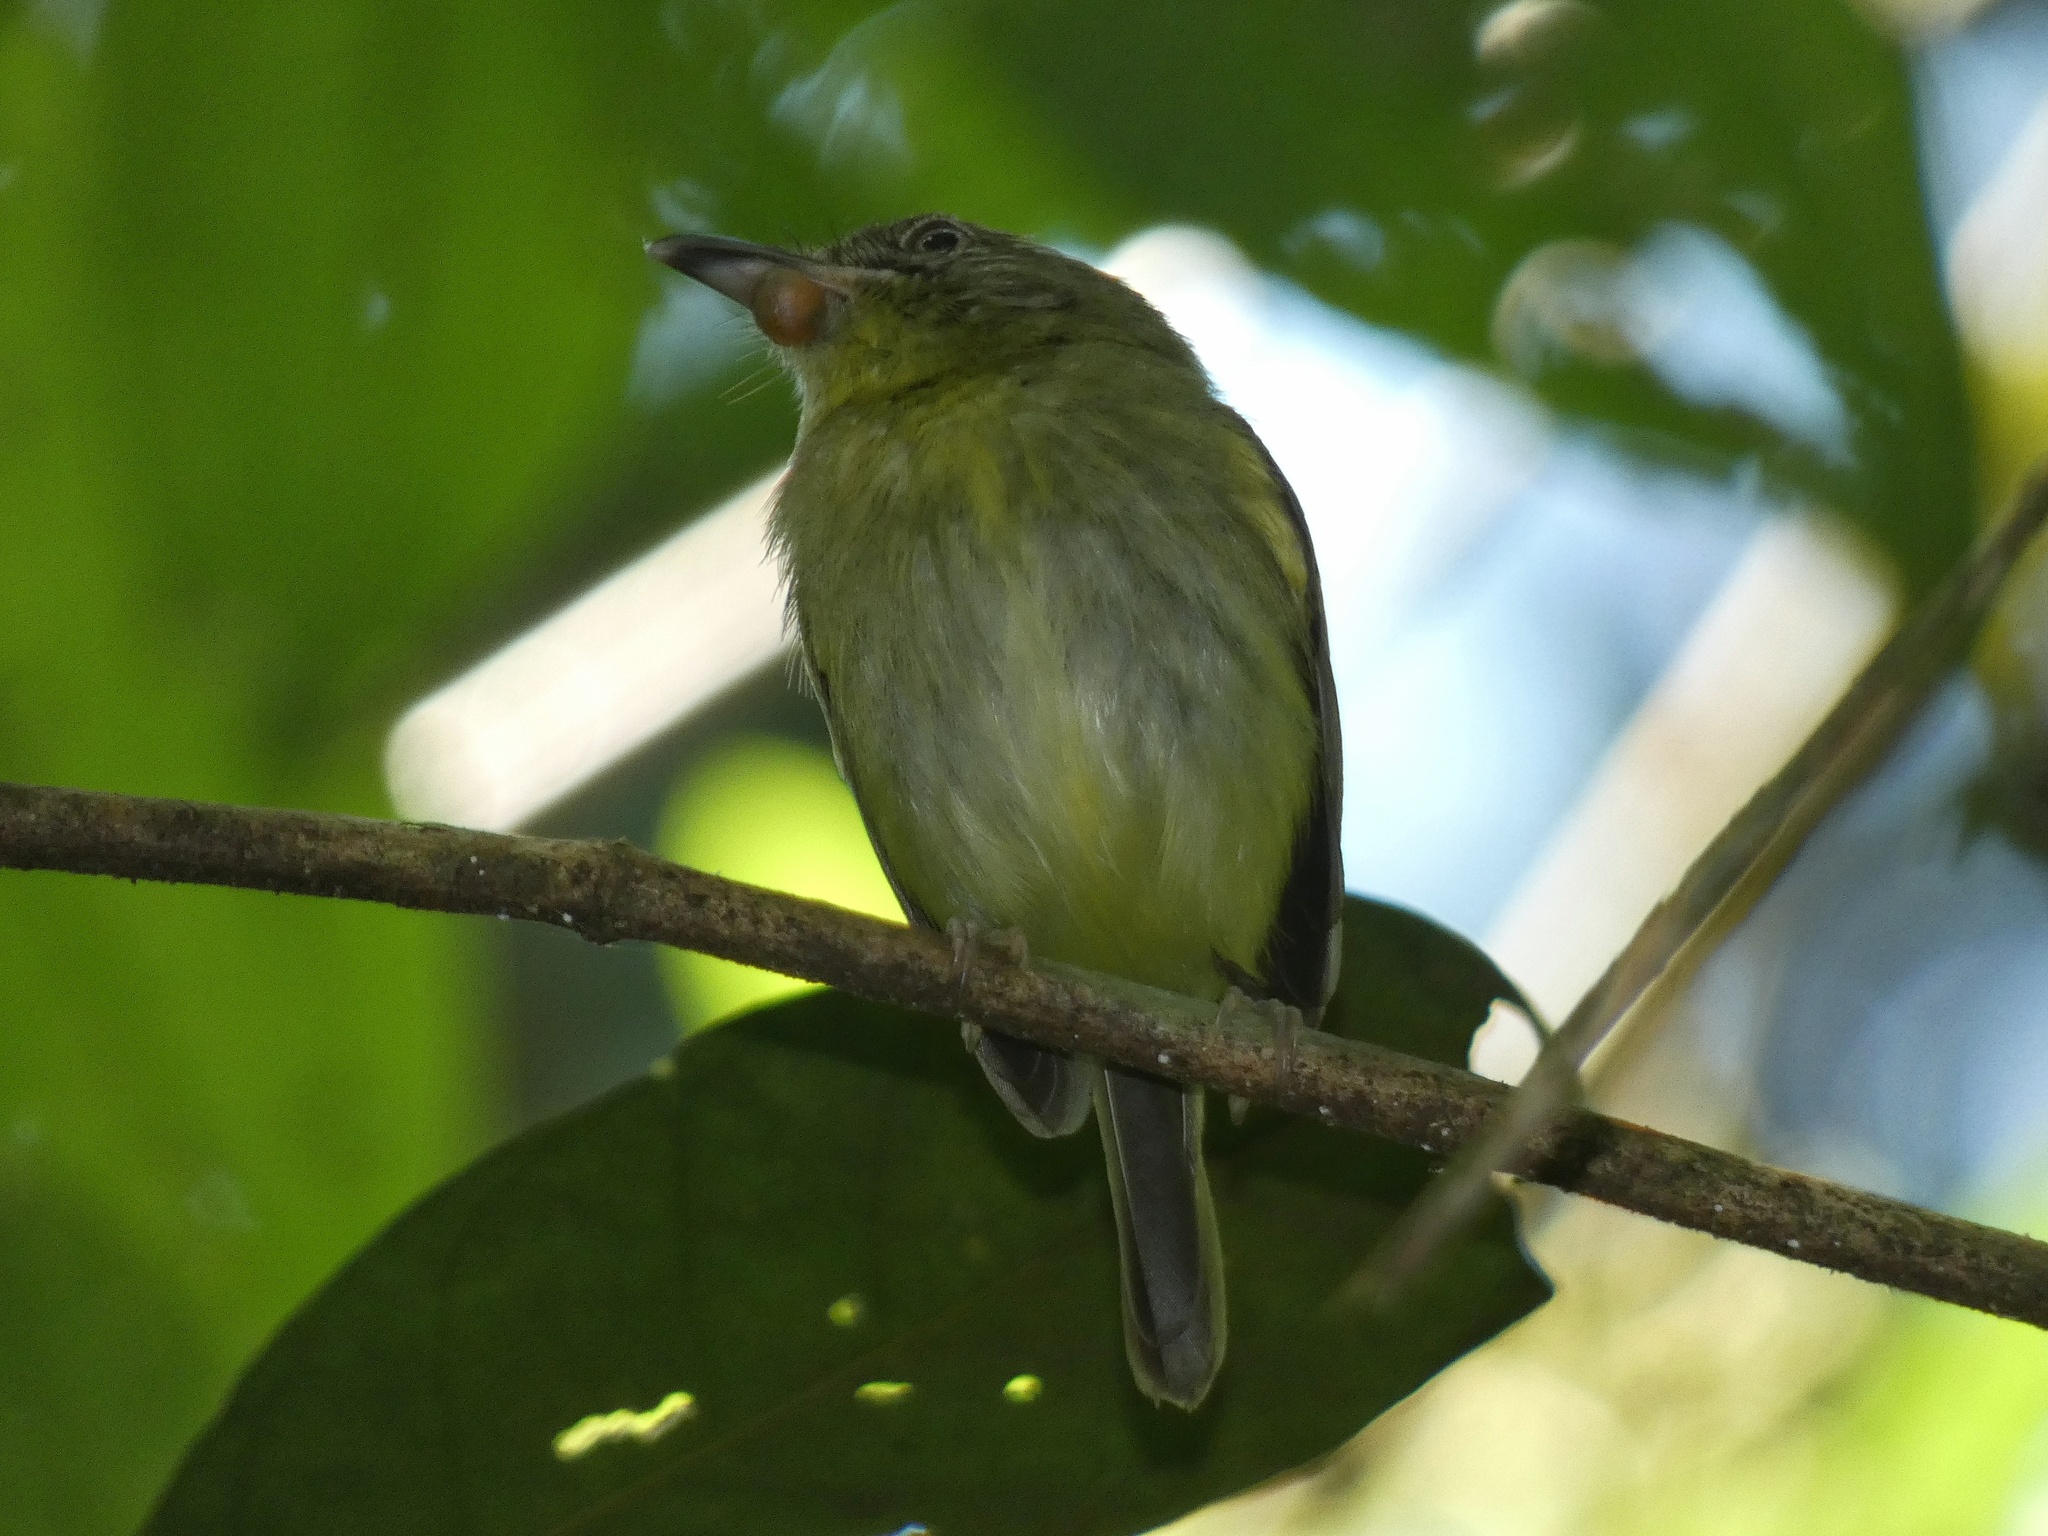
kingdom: Animalia
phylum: Chordata
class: Aves
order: Passeriformes
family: Tyrannidae
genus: Oncostoma
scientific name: Oncostoma olivaceum
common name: Southern bentbill
